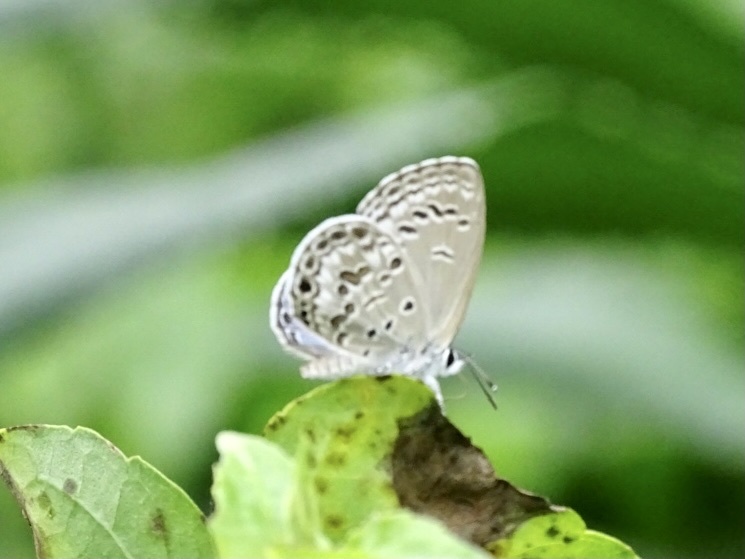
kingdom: Animalia
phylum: Arthropoda
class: Insecta
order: Lepidoptera
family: Lycaenidae
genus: Chilades
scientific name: Chilades laius
